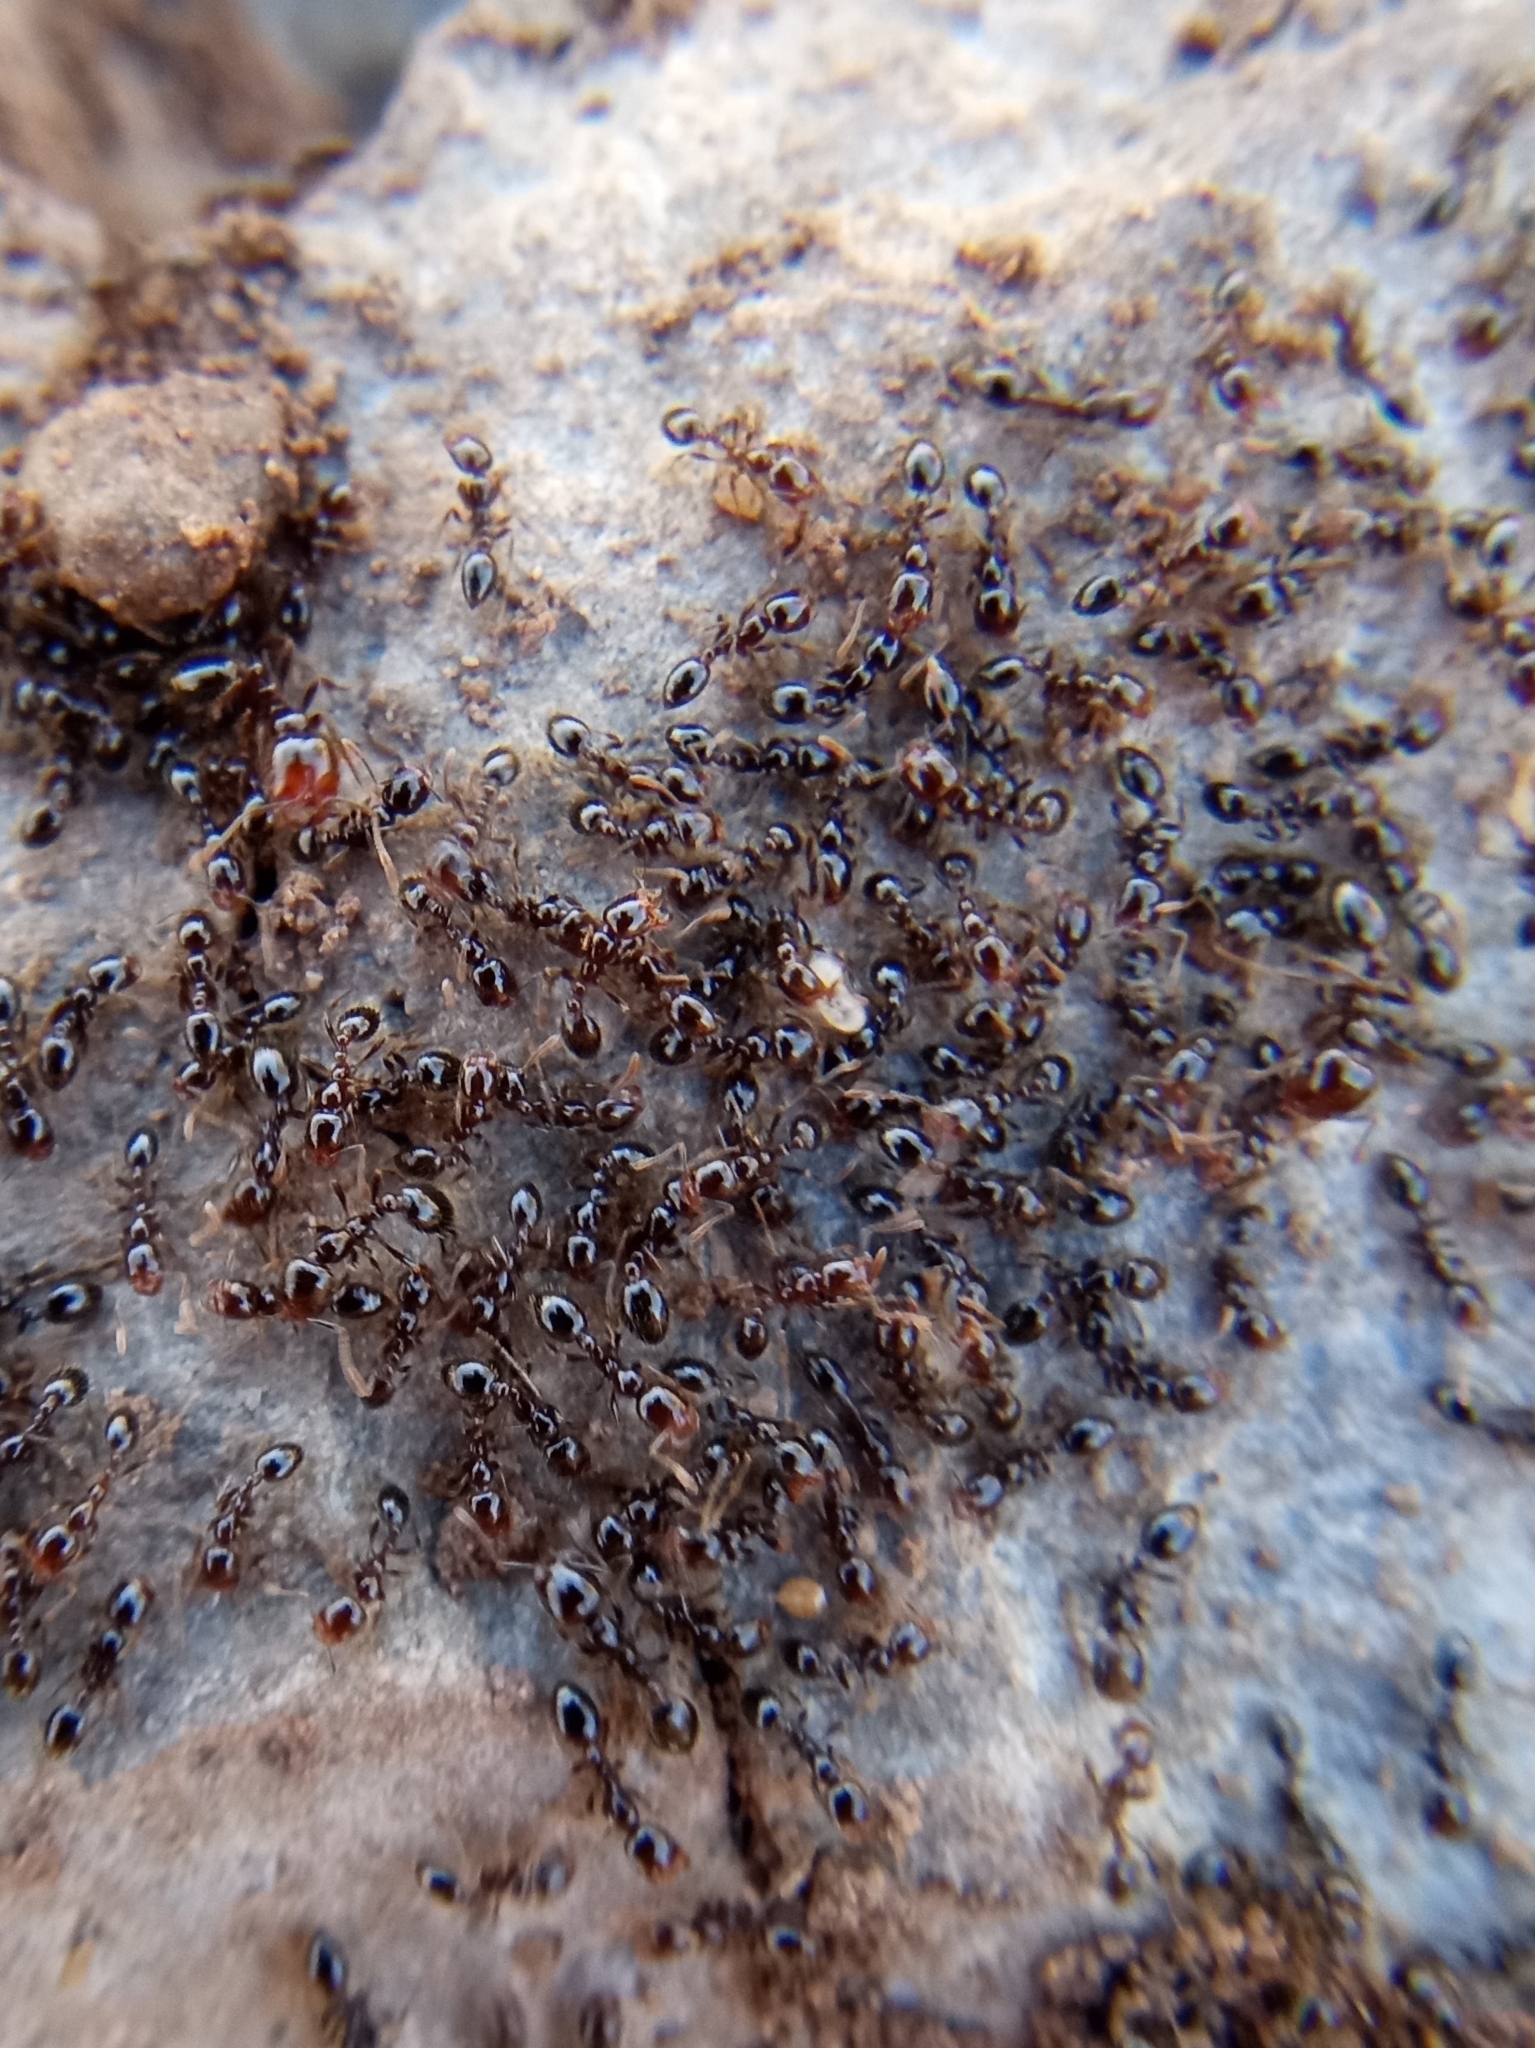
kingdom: Animalia
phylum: Arthropoda
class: Insecta
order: Hymenoptera
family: Formicidae
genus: Solenopsis
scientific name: Solenopsis xyloni
